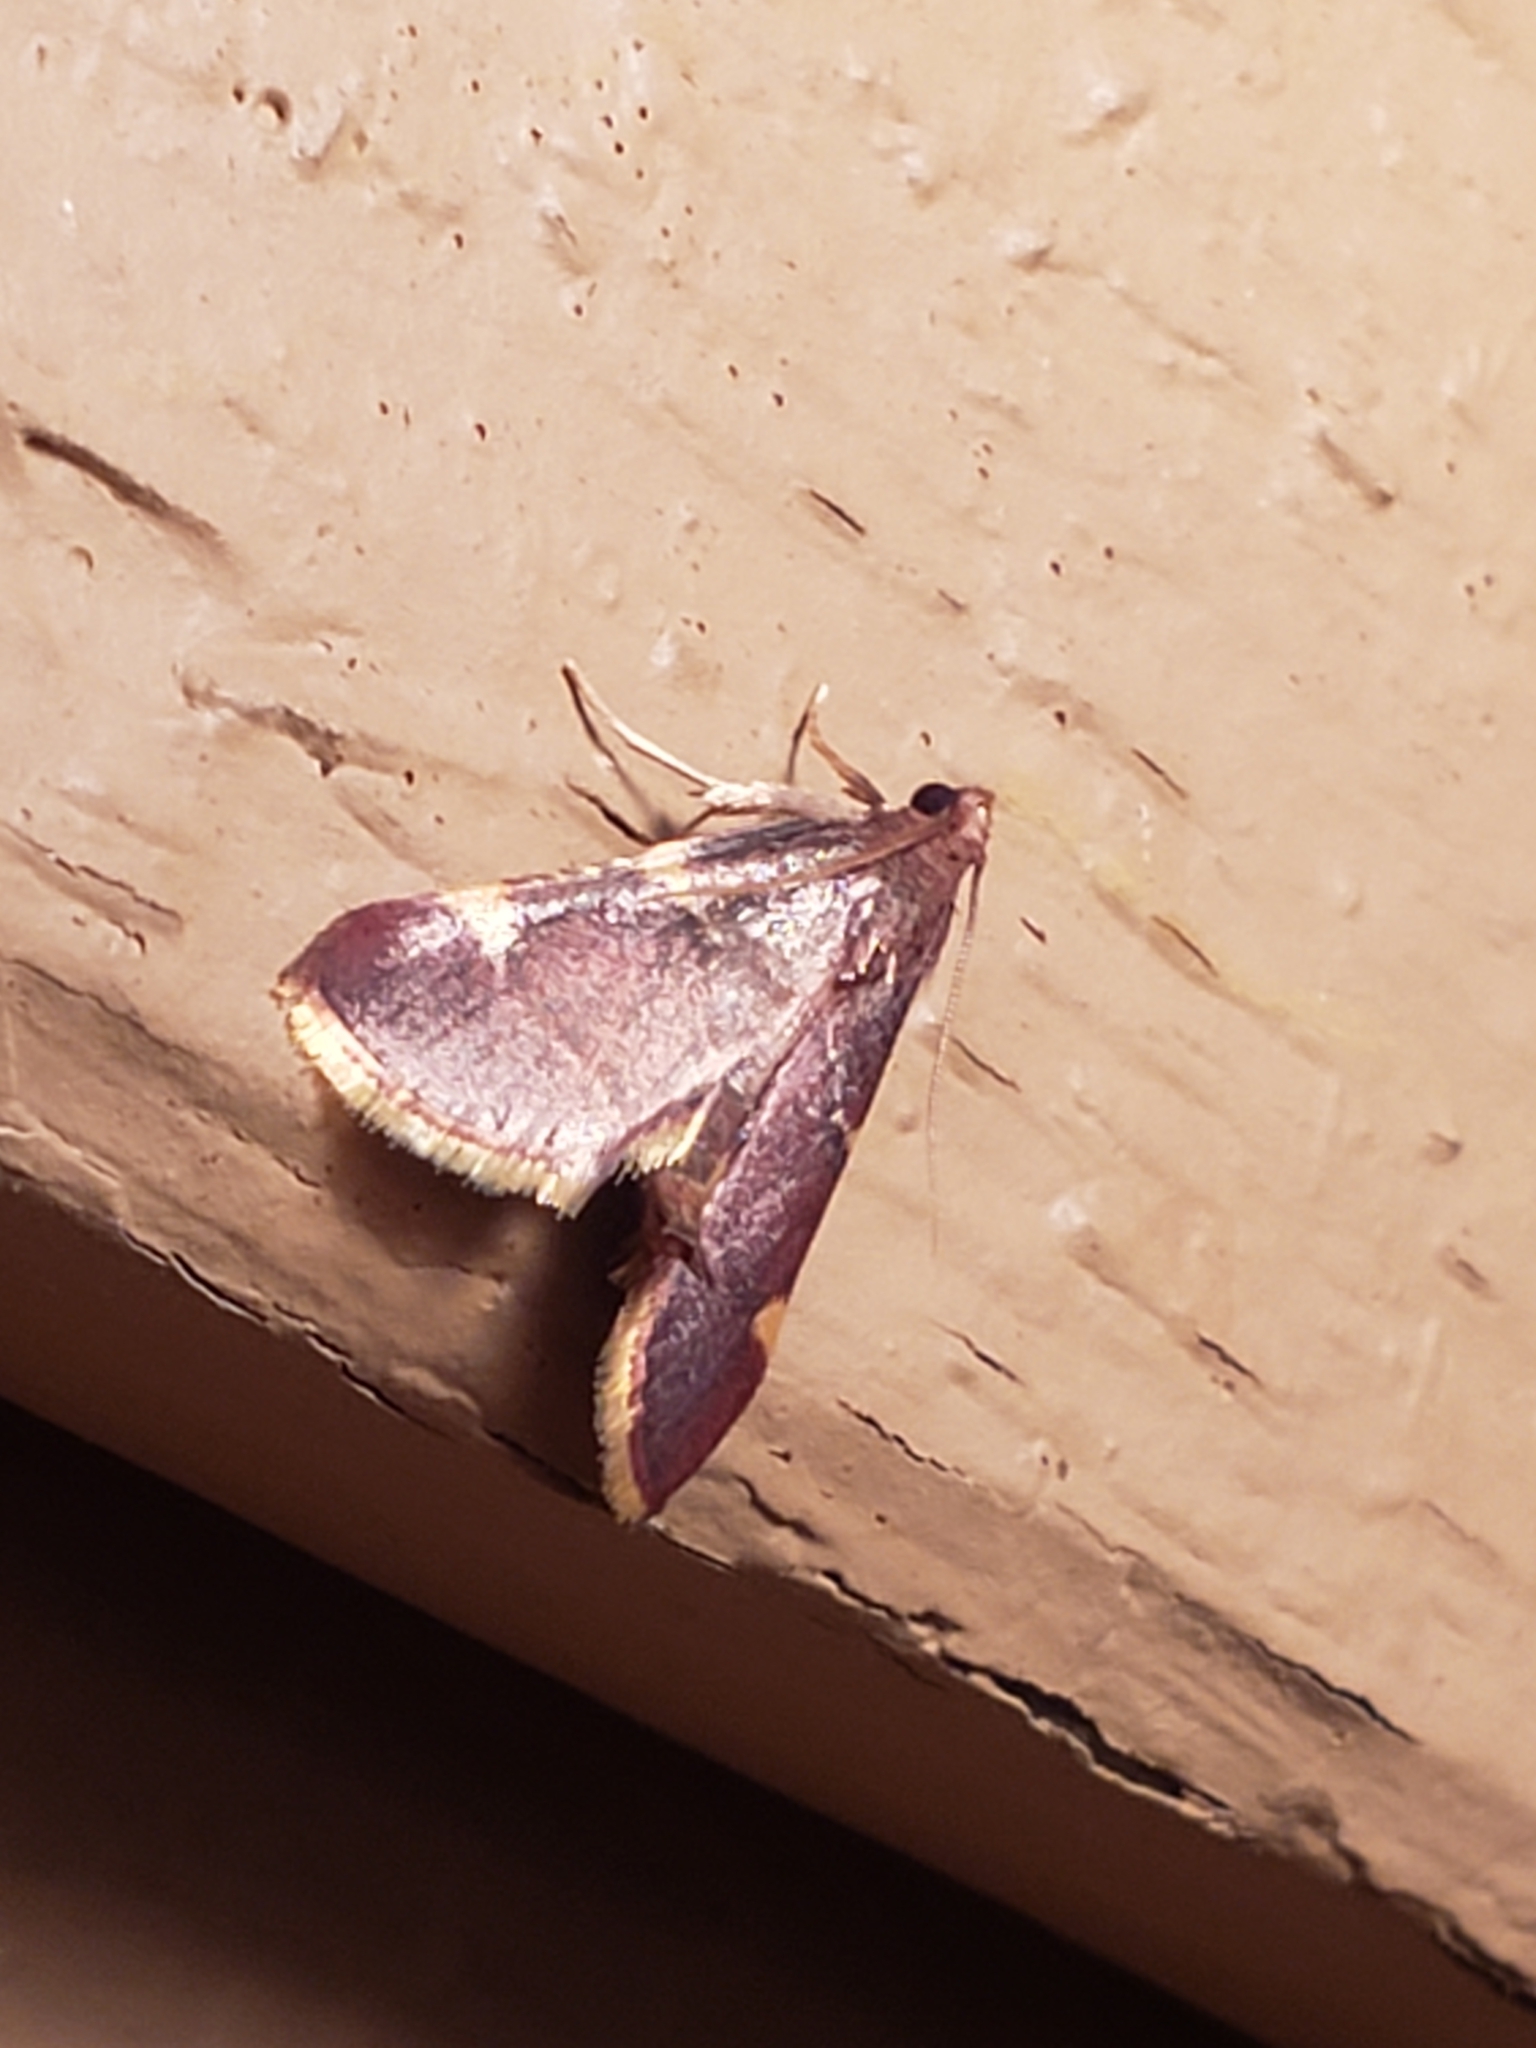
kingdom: Animalia
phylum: Arthropoda
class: Insecta
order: Lepidoptera
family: Pyralidae
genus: Hypsopygia
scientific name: Hypsopygia olinalis
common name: Yellow-fringed dolichomia moth
